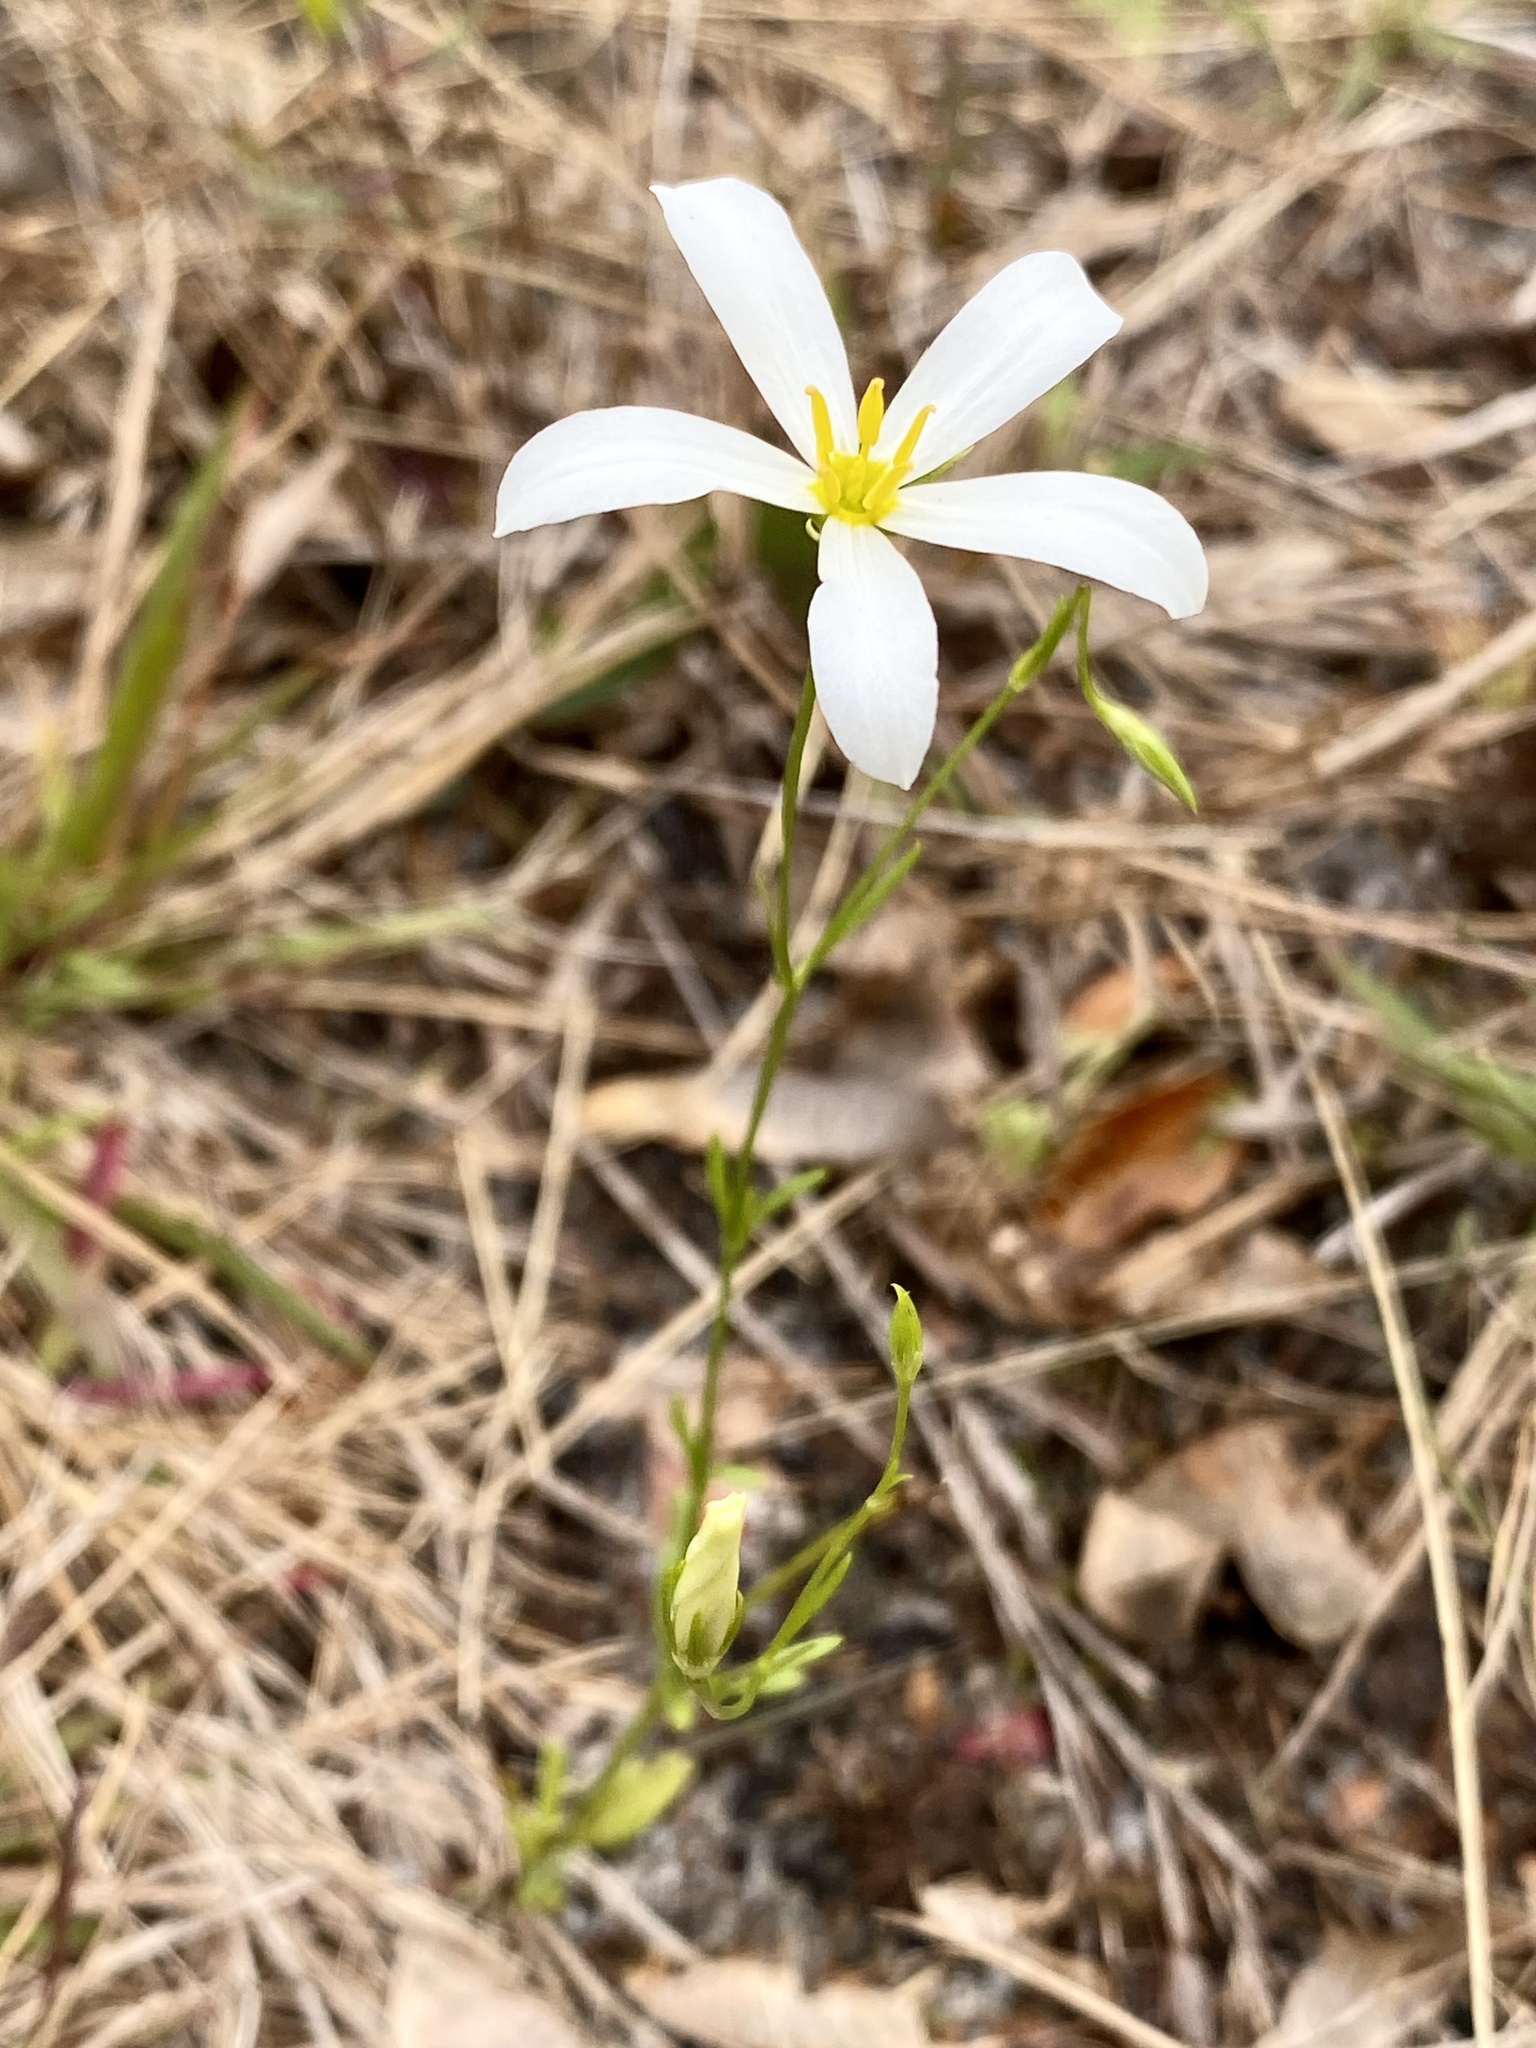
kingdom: Plantae
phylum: Tracheophyta
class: Magnoliopsida
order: Gentianales
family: Gentianaceae
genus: Sabatia
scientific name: Sabatia brevifolia
